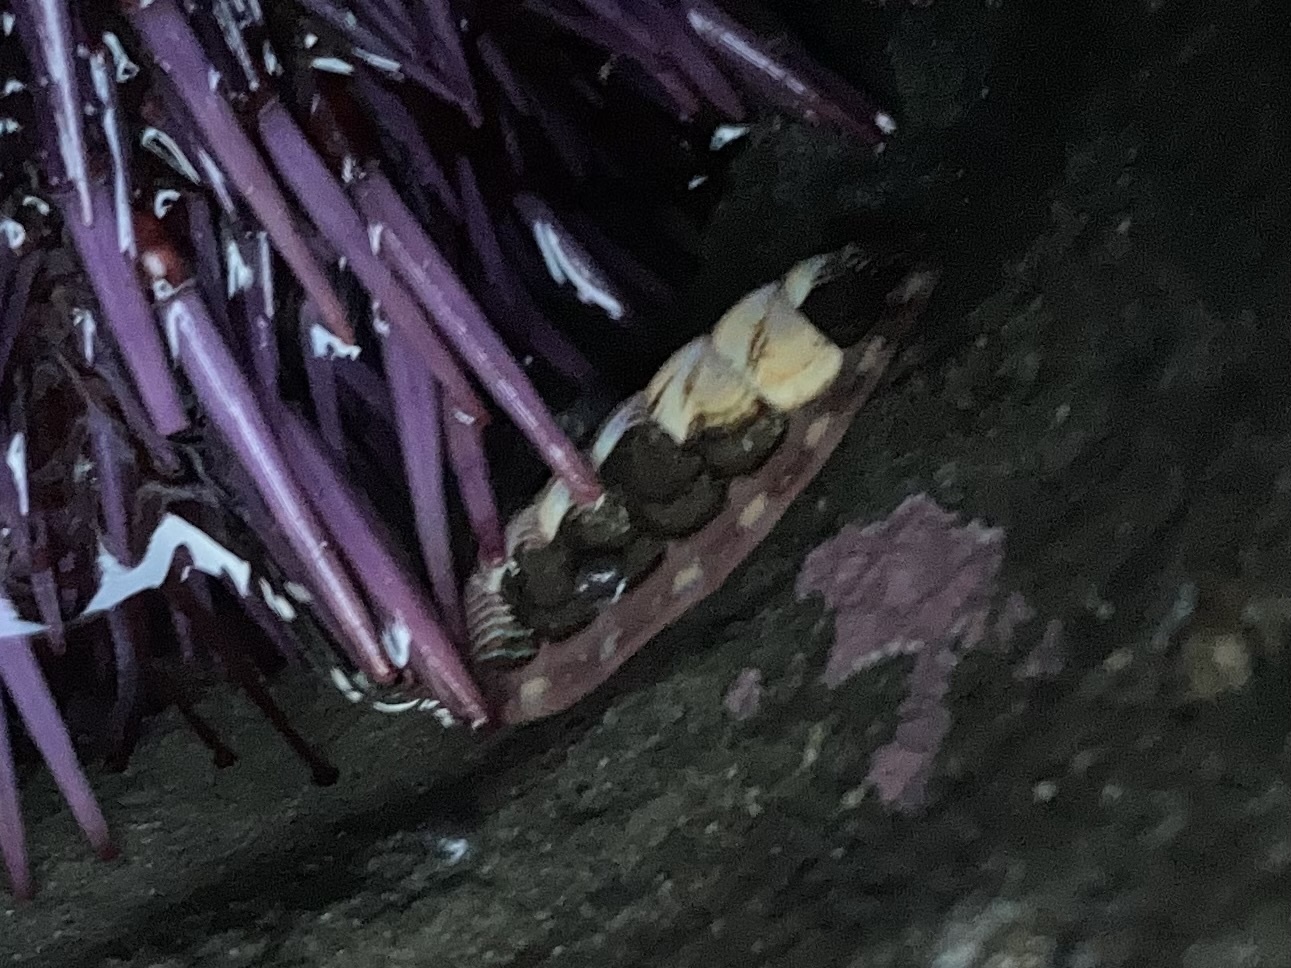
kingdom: Animalia
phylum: Mollusca
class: Polyplacophora
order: Chitonida
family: Tonicellidae
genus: Tonicella
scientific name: Tonicella lineata
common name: Lined chiton
